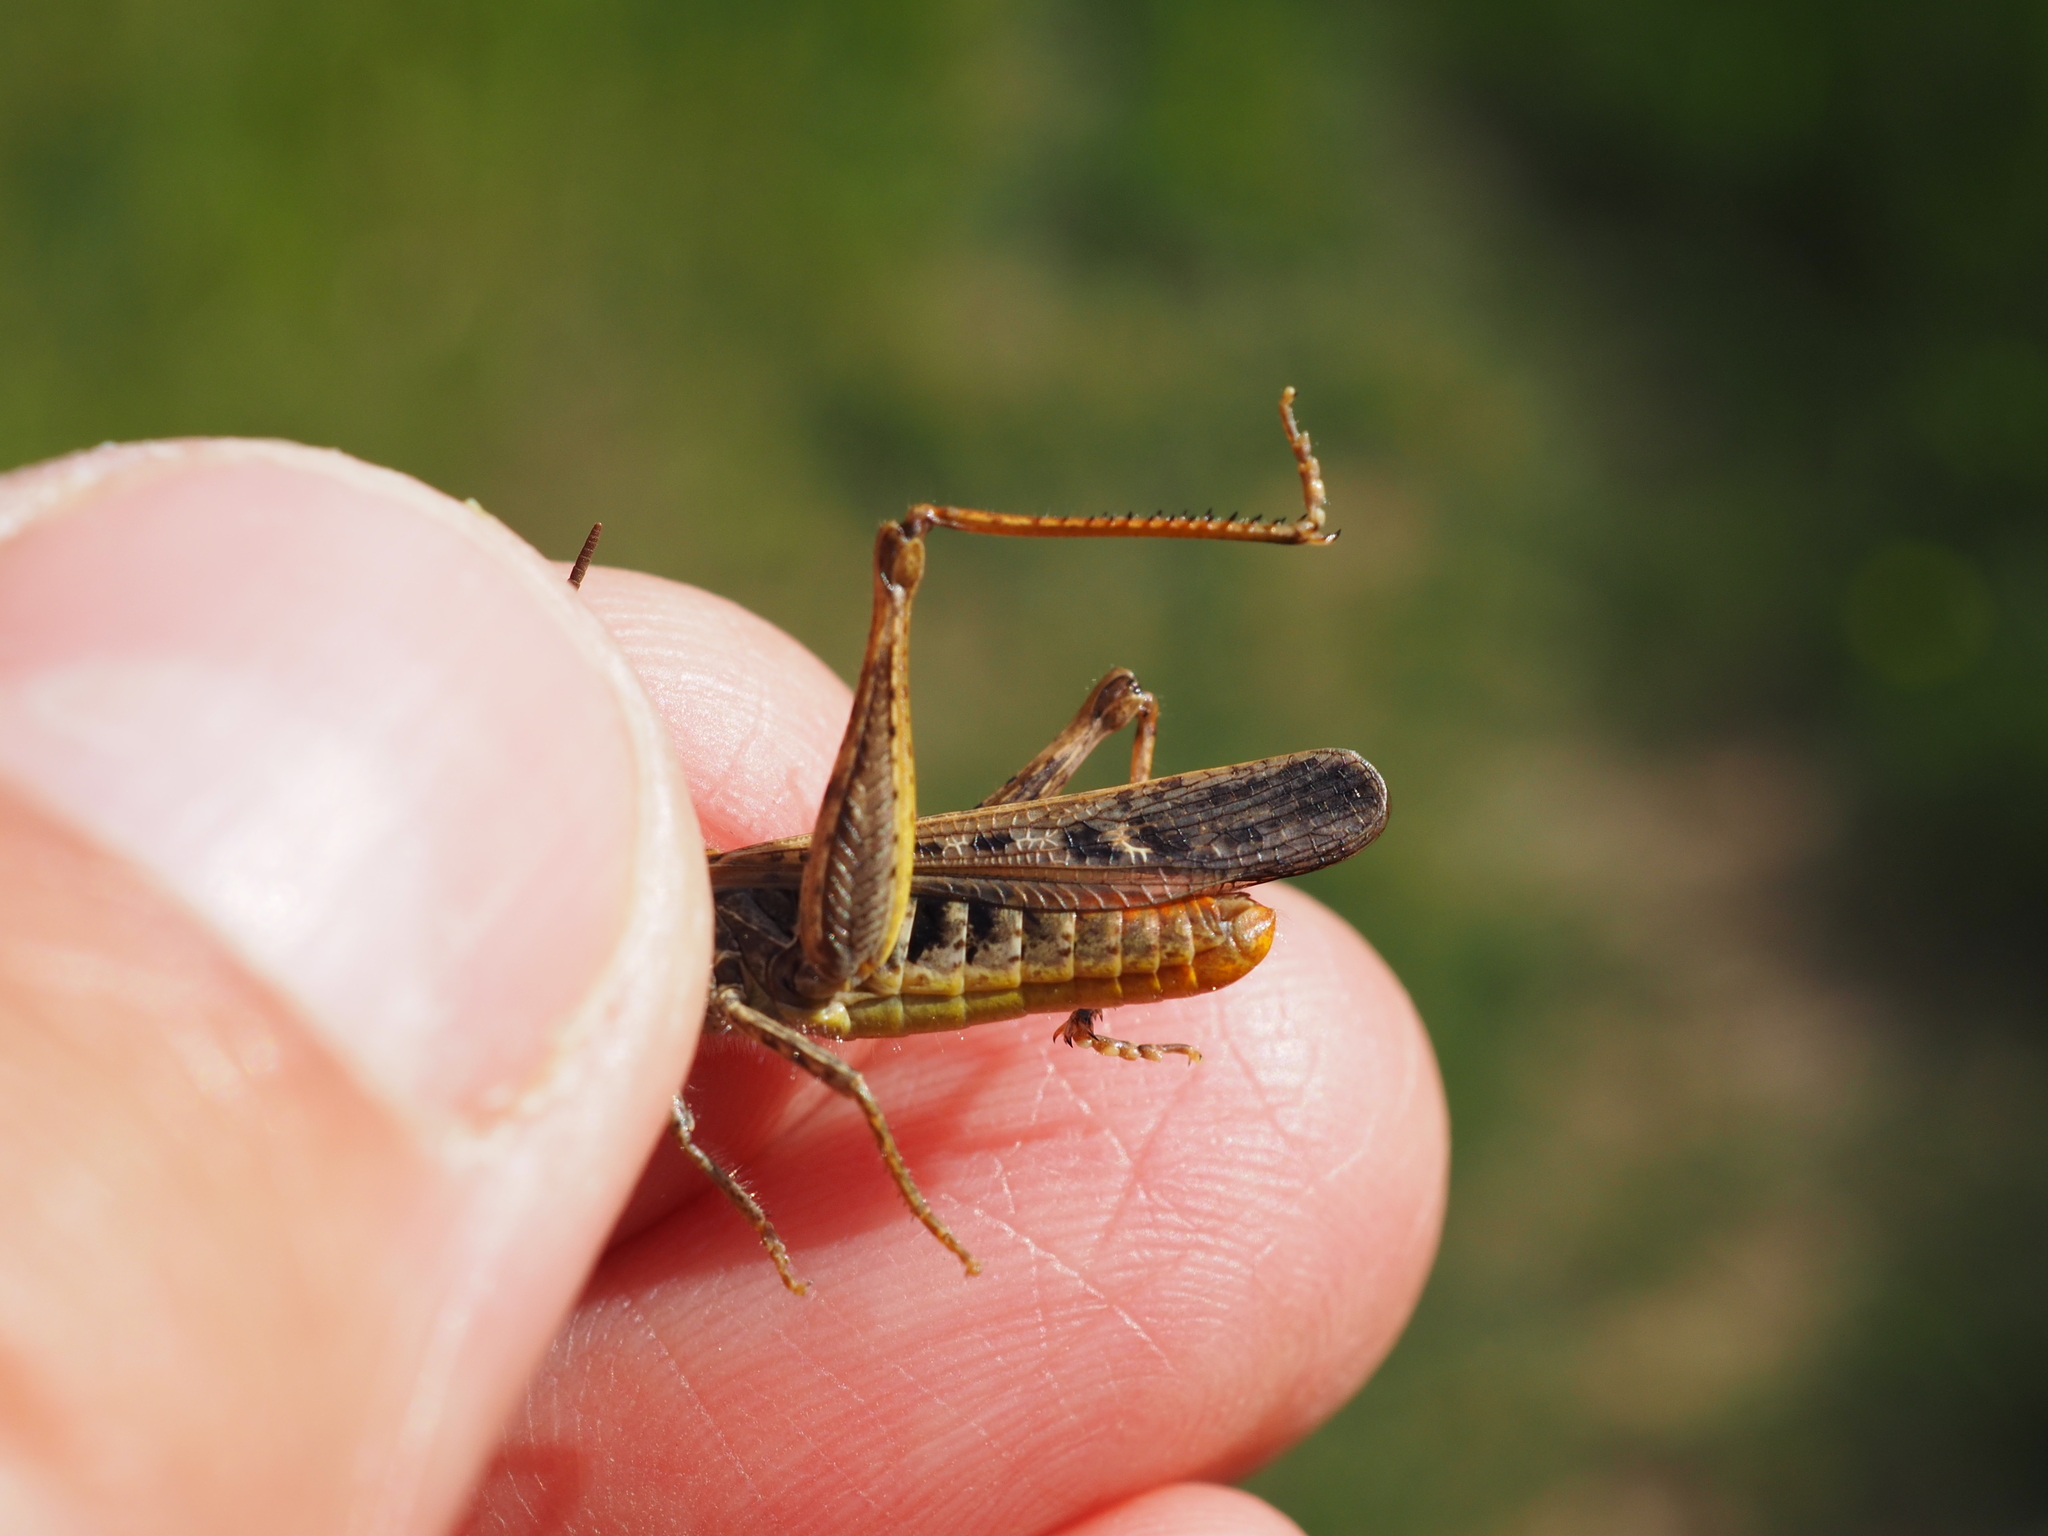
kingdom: Animalia
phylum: Arthropoda
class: Insecta
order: Orthoptera
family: Acrididae
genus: Chorthippus
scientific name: Chorthippus brunneus
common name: Field grasshopper
